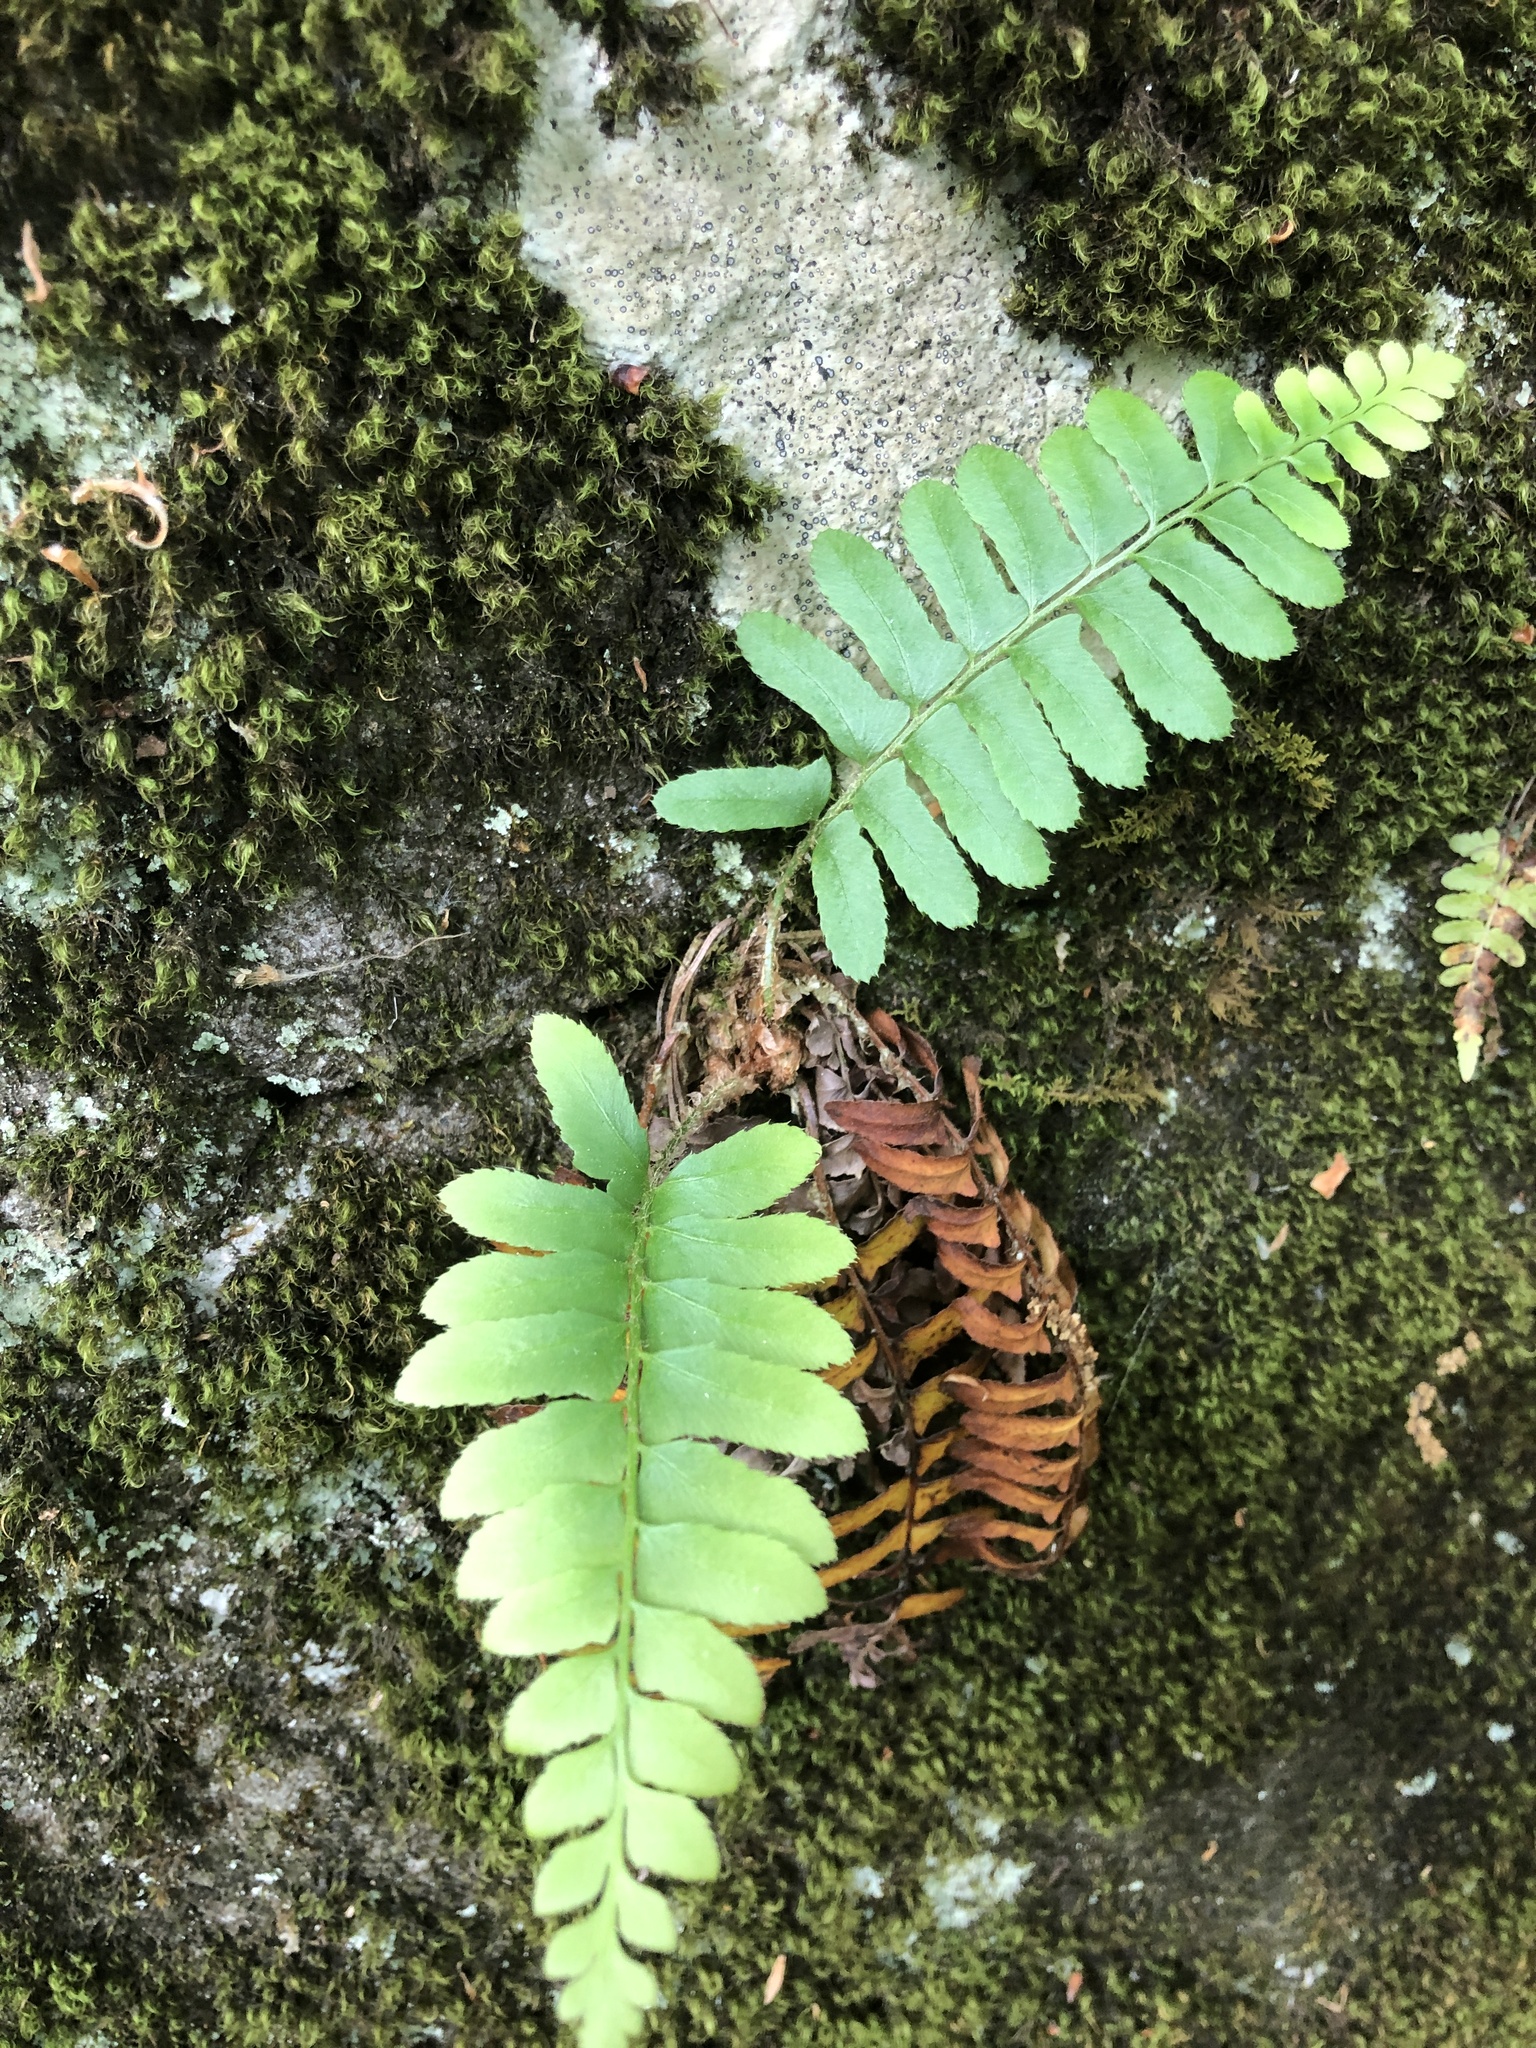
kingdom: Plantae
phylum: Tracheophyta
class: Polypodiopsida
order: Polypodiales
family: Dryopteridaceae
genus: Polystichum
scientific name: Polystichum acrostichoides
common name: Christmas fern
